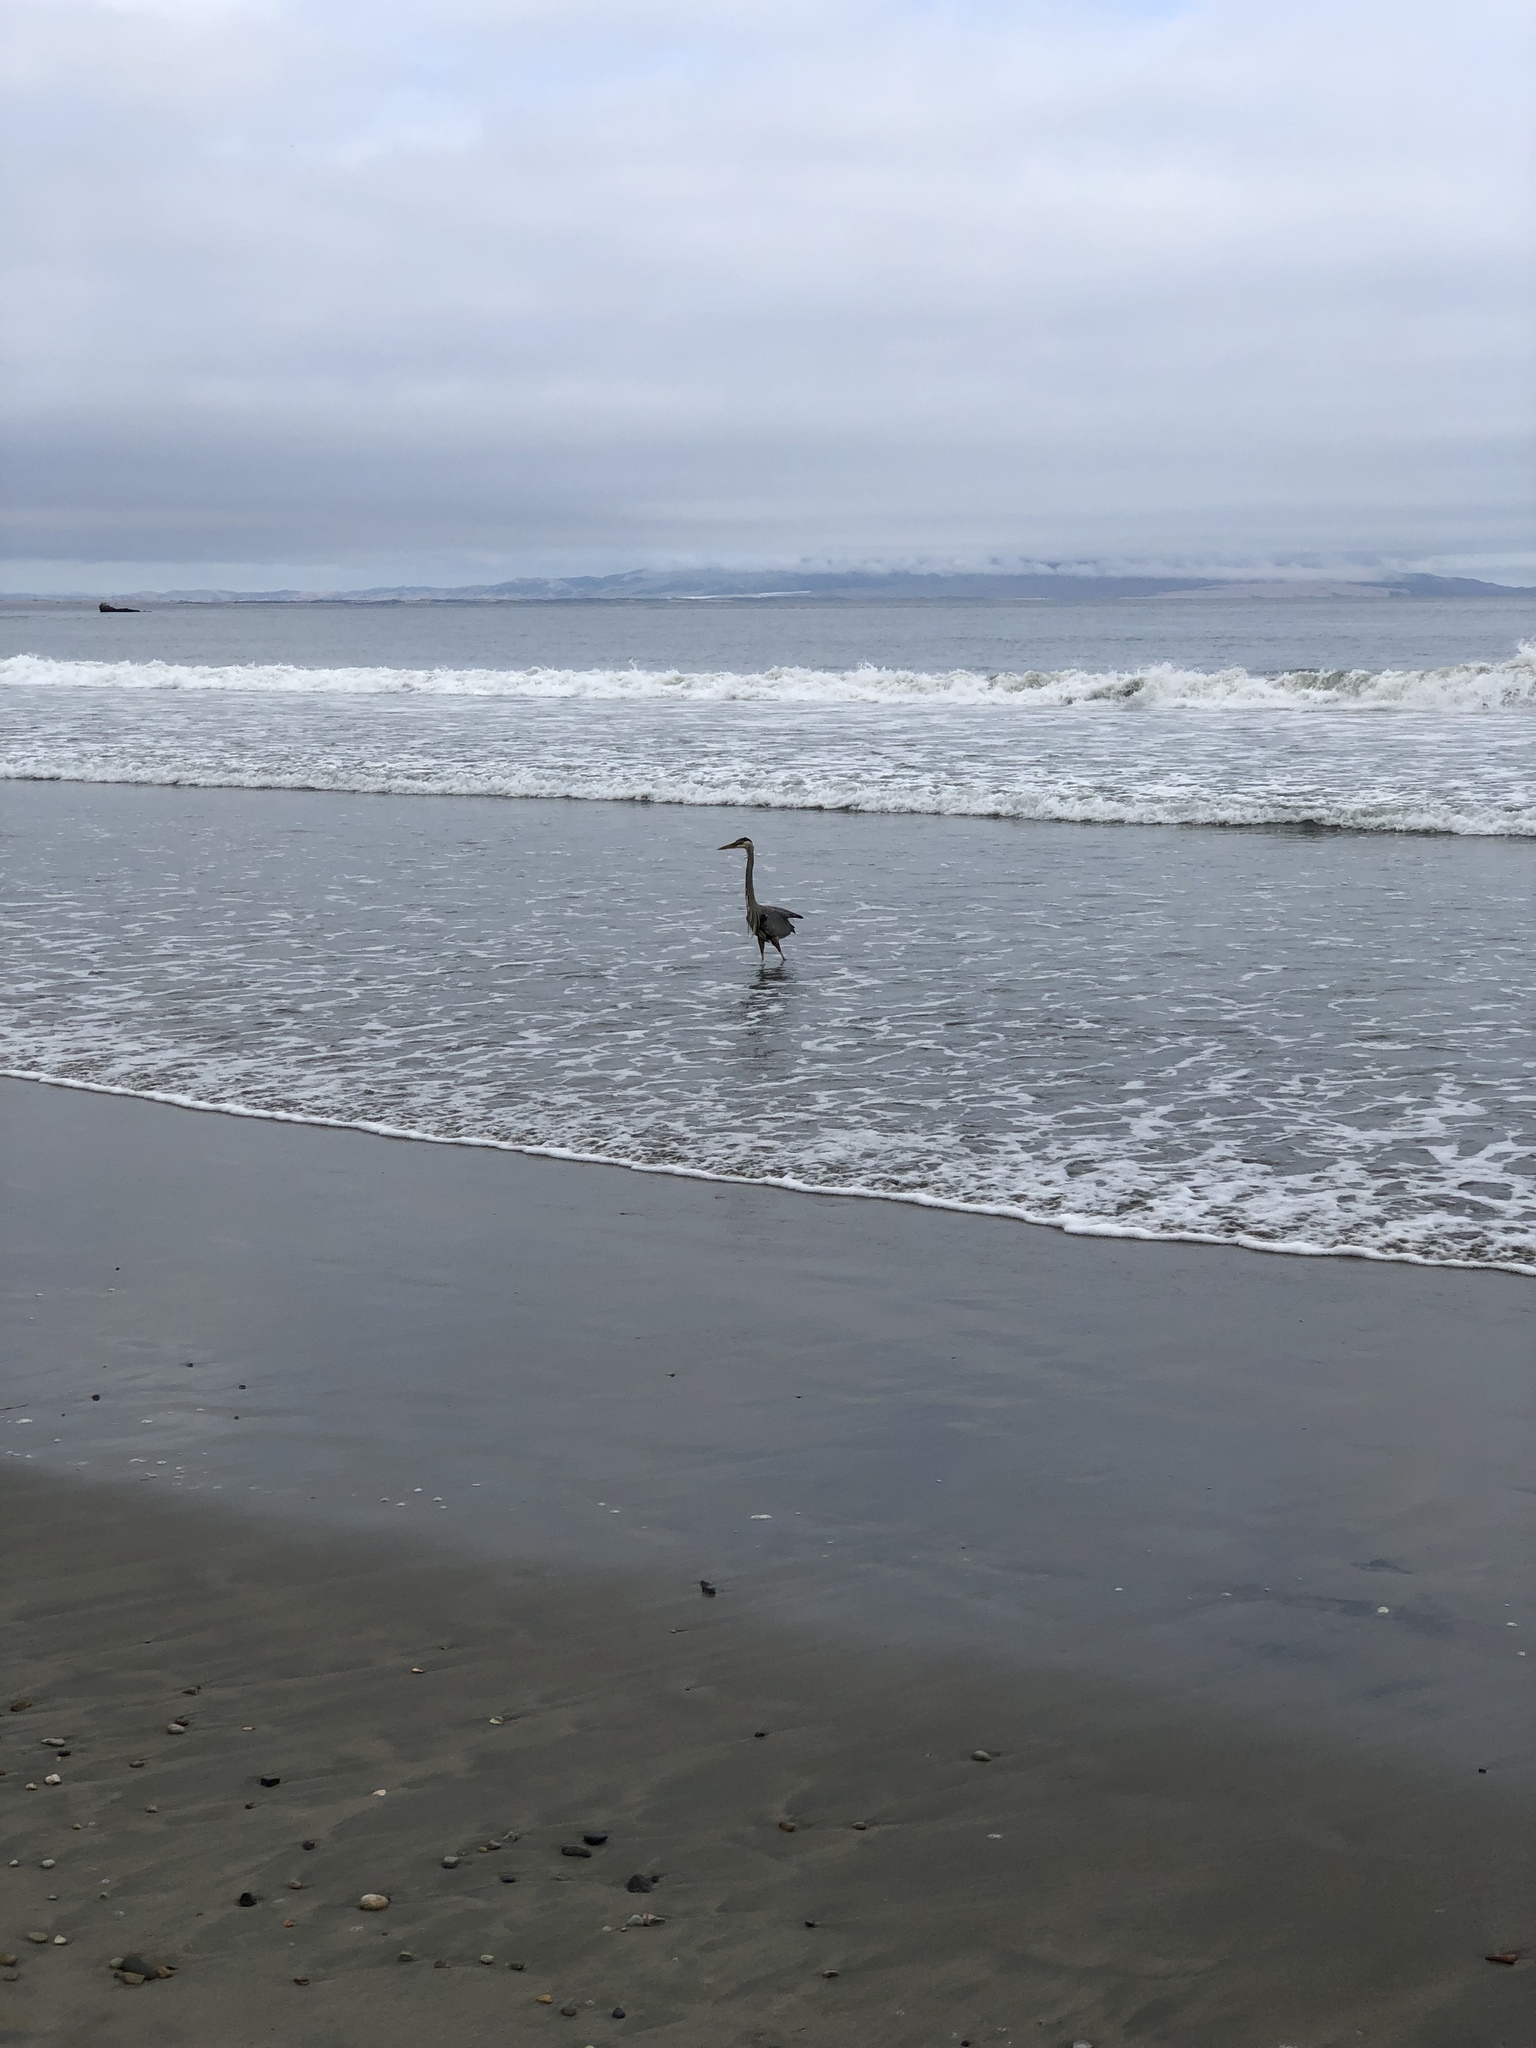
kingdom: Animalia
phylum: Chordata
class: Aves
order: Pelecaniformes
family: Ardeidae
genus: Ardea
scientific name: Ardea herodias
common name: Great blue heron
